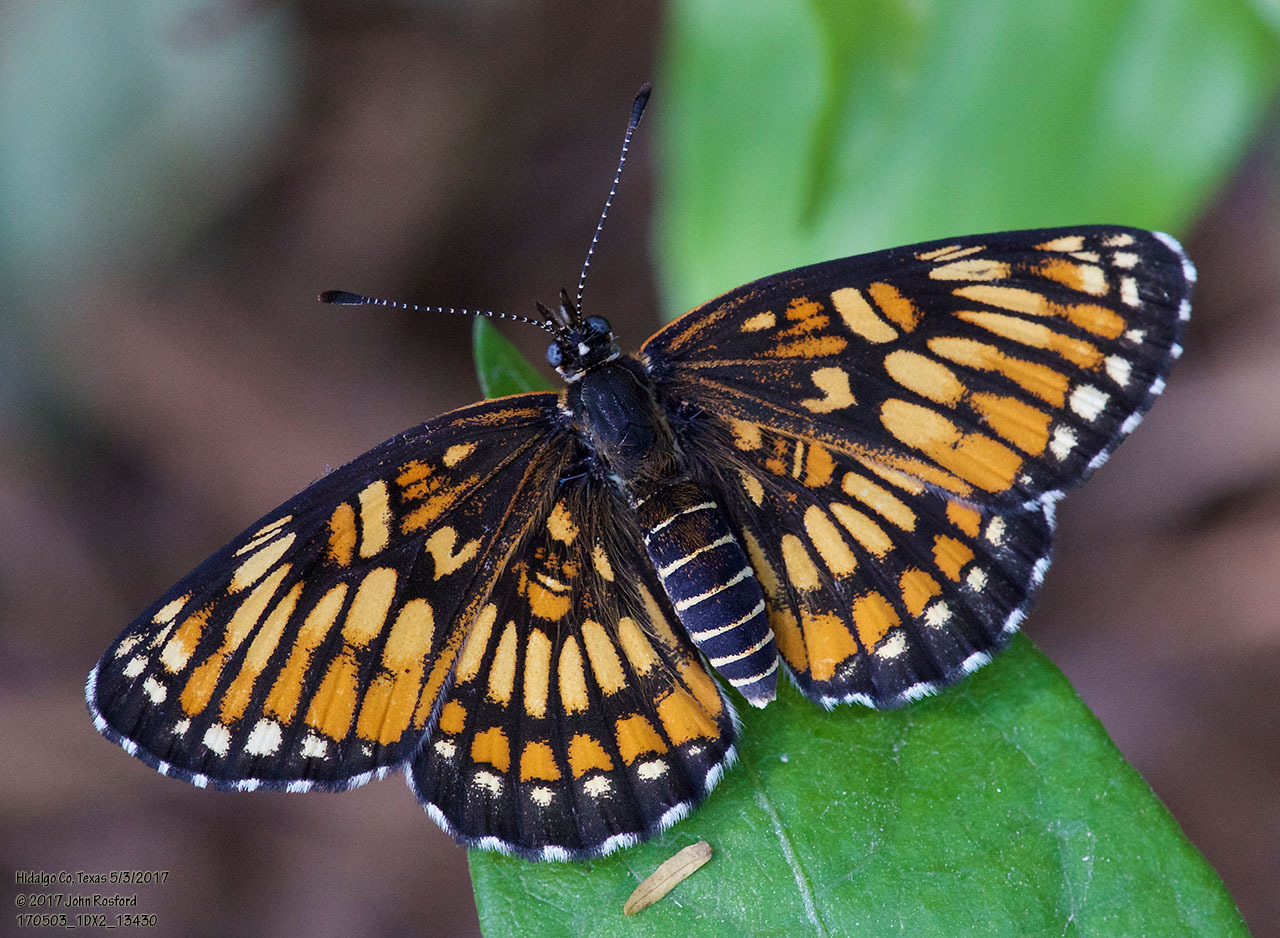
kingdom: Animalia
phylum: Arthropoda
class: Insecta
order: Lepidoptera
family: Nymphalidae
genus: Thessalia
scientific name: Thessalia theona
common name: Nymphalid moth
